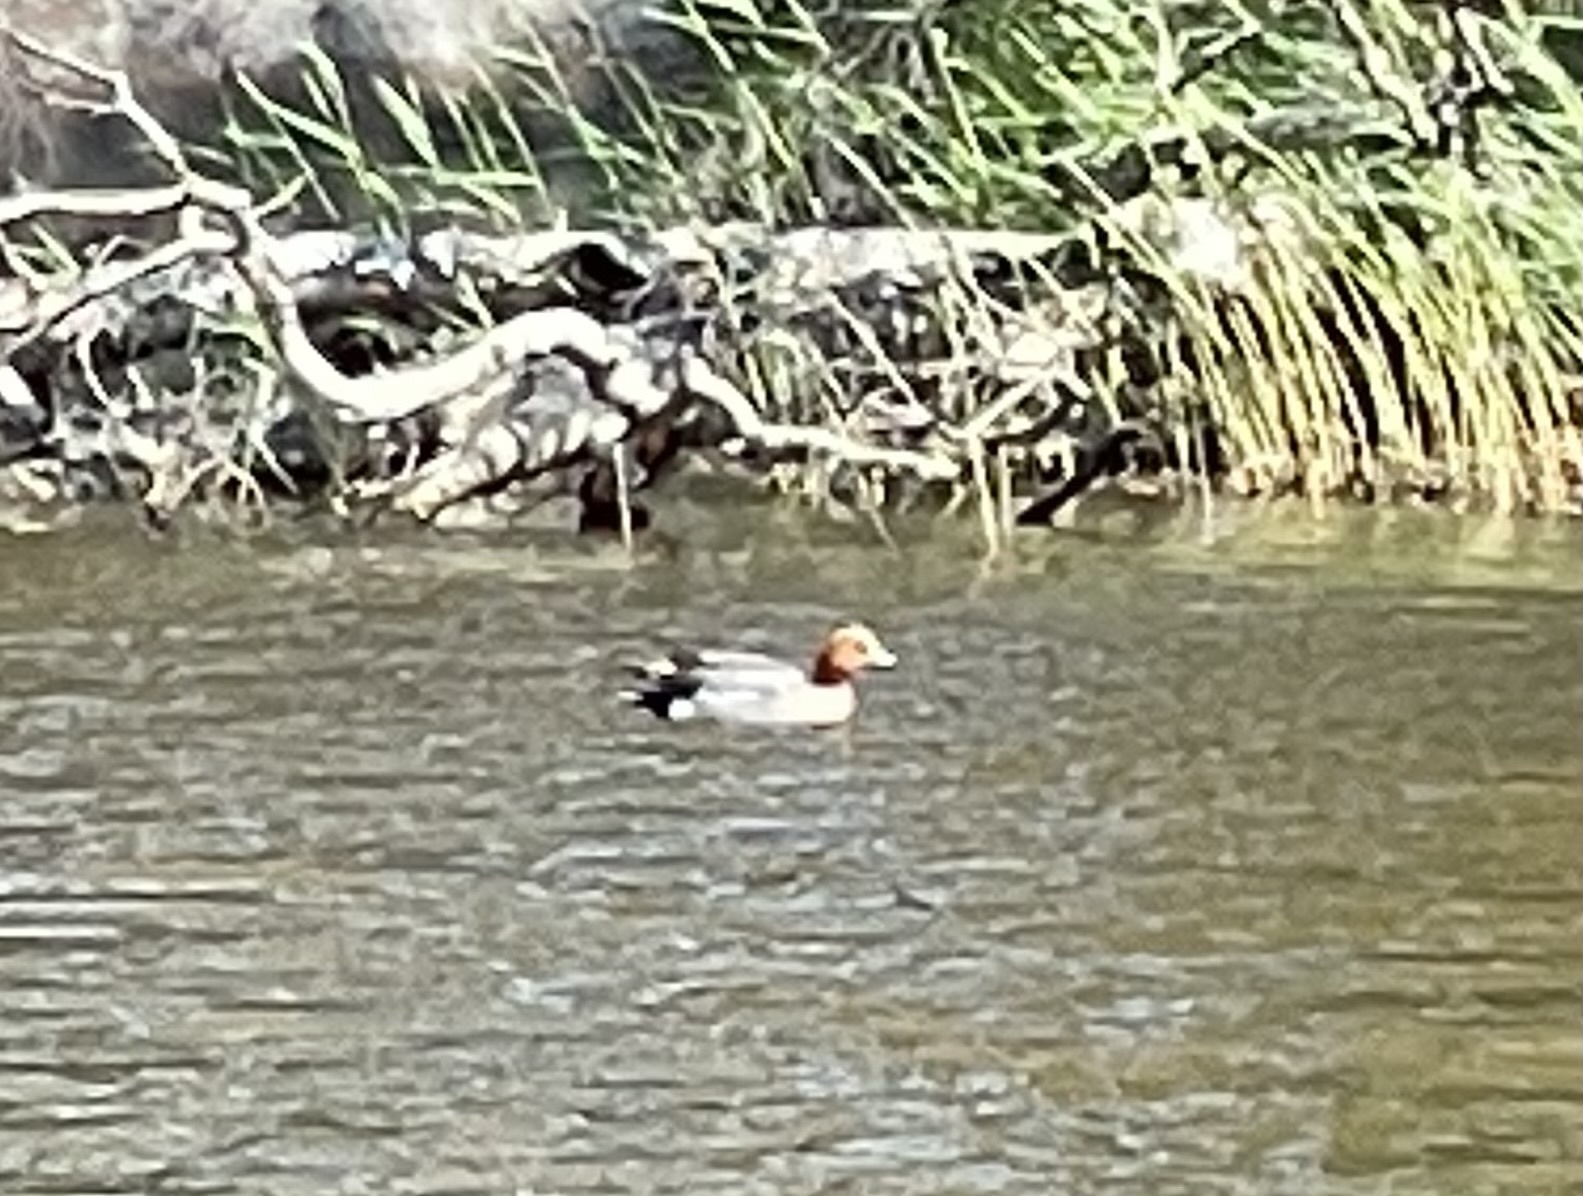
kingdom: Animalia
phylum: Chordata
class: Aves
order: Anseriformes
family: Anatidae
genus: Mareca
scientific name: Mareca penelope
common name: Eurasian wigeon
